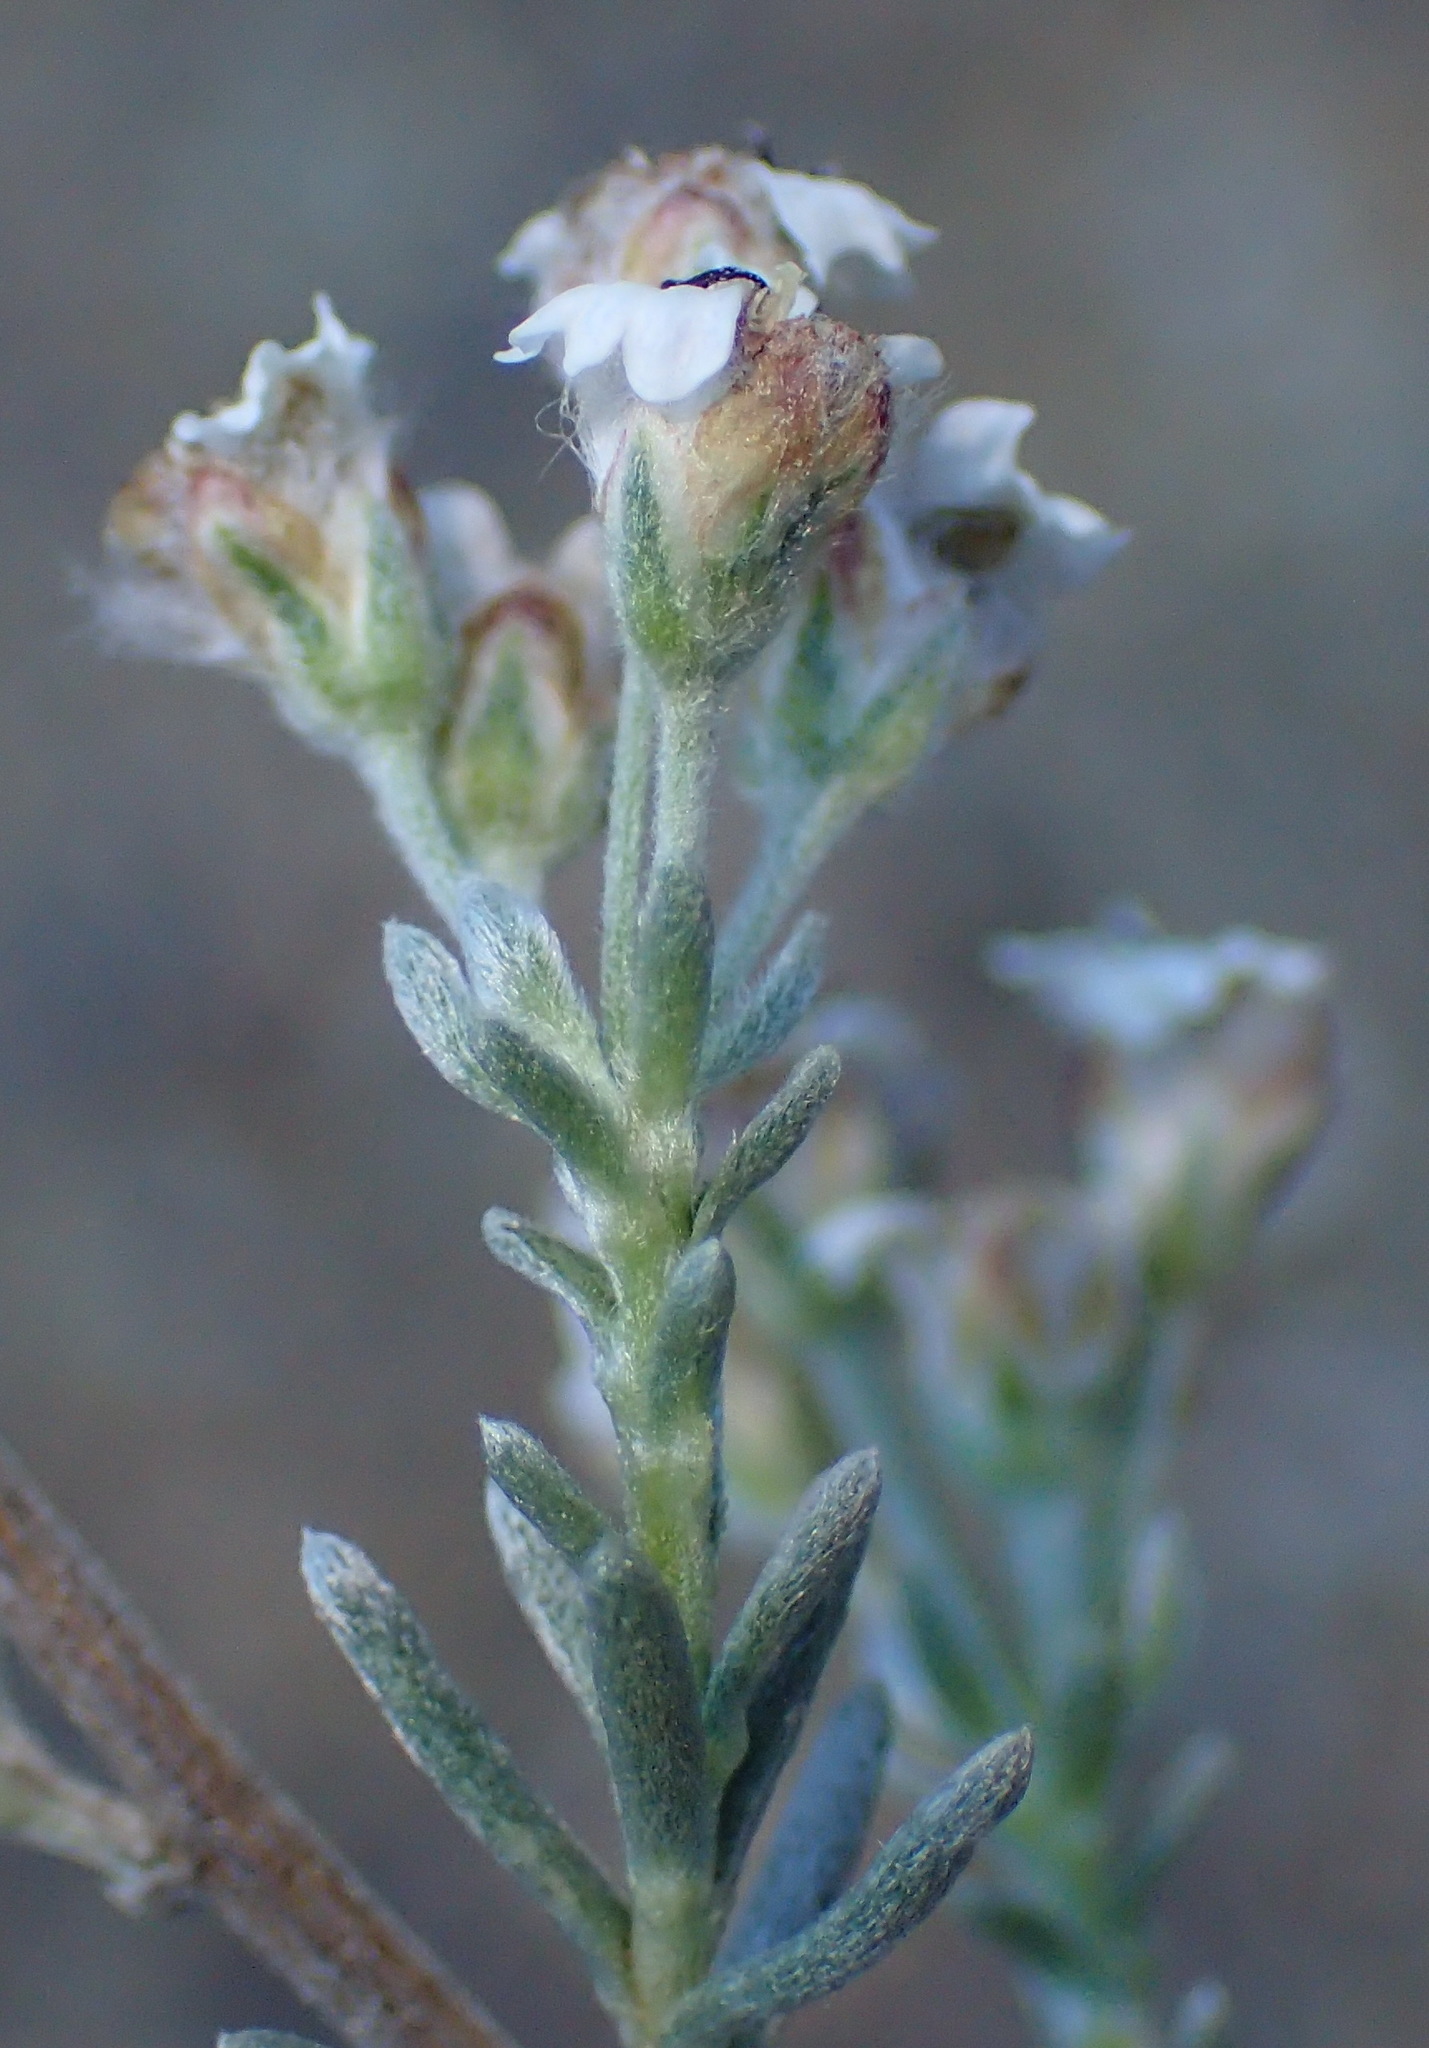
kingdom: Plantae
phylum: Tracheophyta
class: Magnoliopsida
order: Asterales
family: Asteraceae
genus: Eriocephalus
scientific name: Eriocephalus brevifolius
